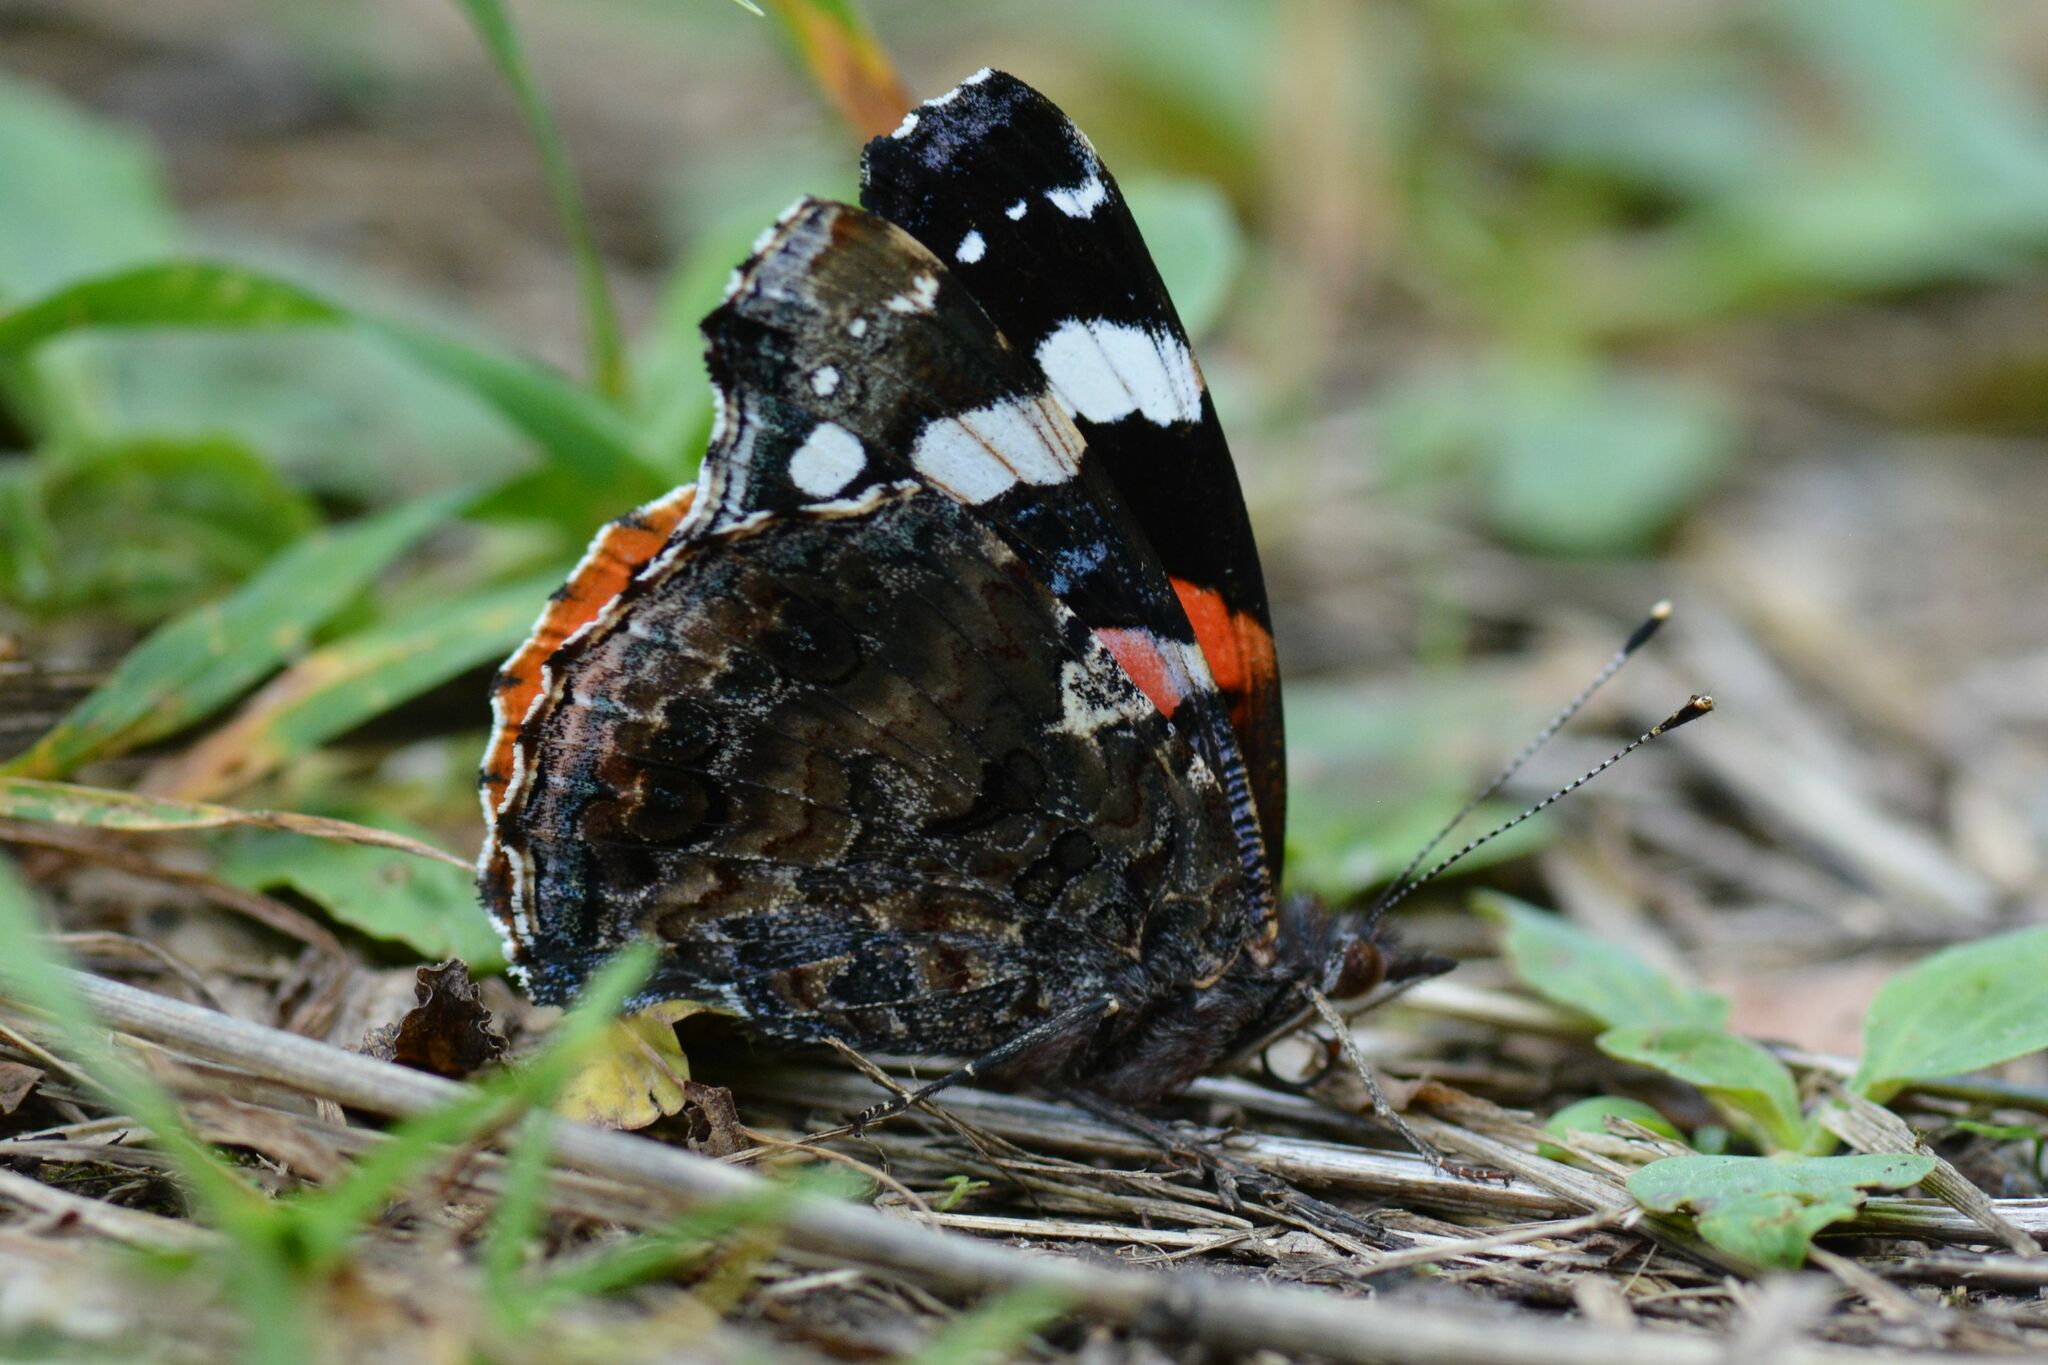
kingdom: Animalia
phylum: Arthropoda
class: Insecta
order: Lepidoptera
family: Nymphalidae
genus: Vanessa
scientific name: Vanessa atalanta
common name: Red admiral
